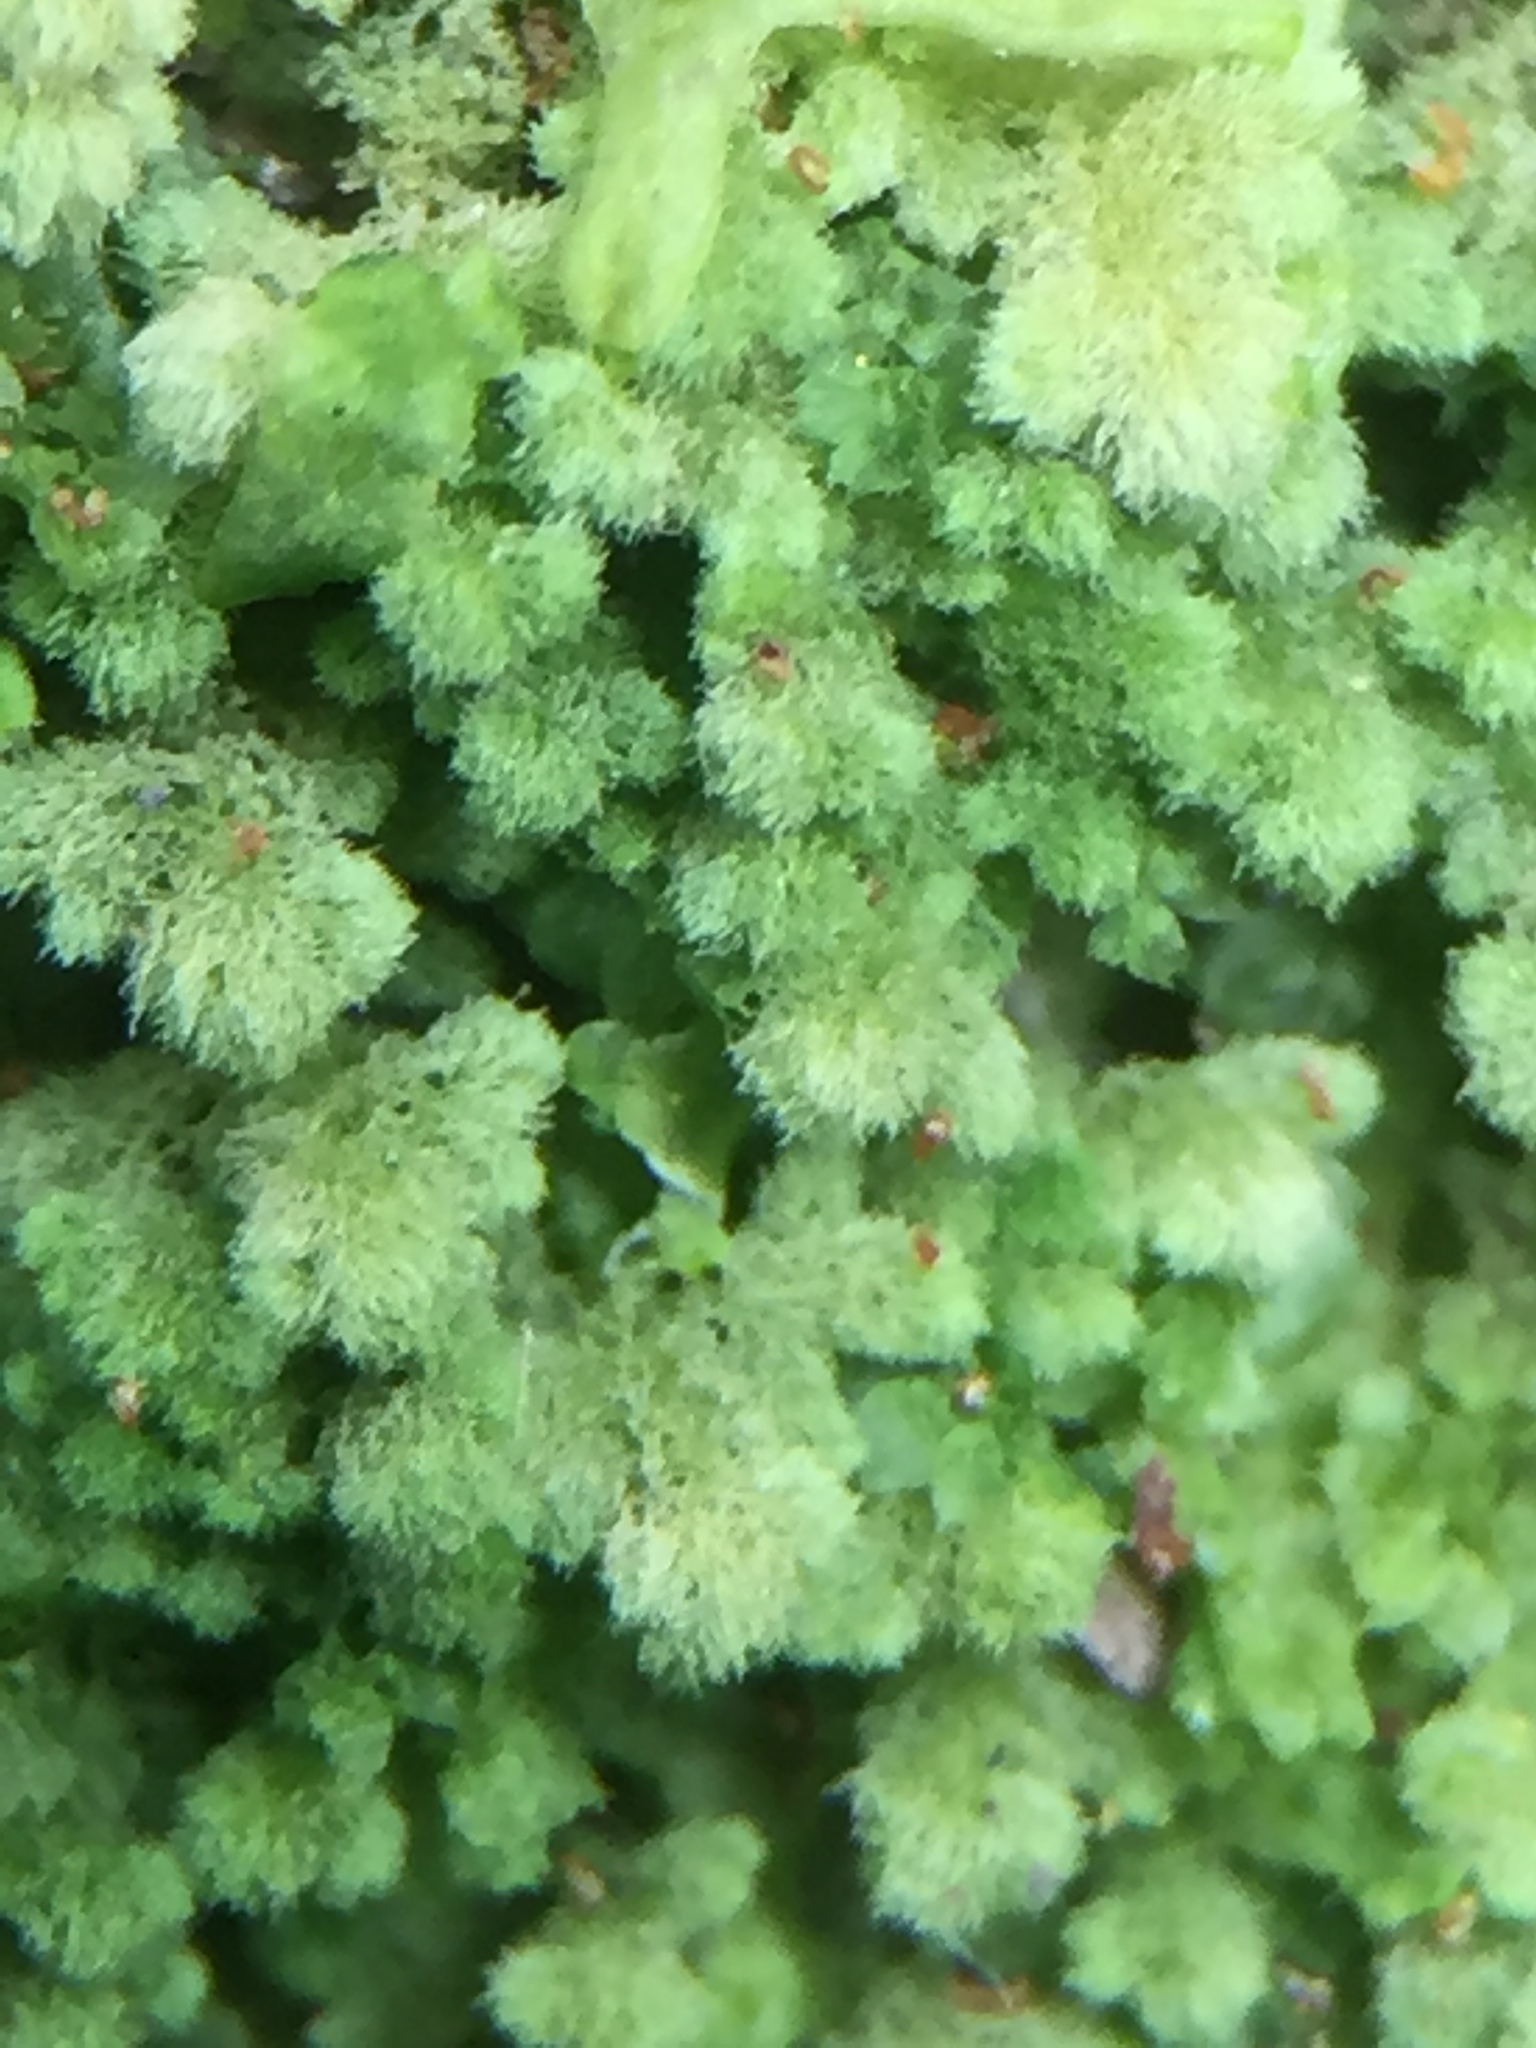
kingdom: Plantae
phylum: Marchantiophyta
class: Jungermanniopsida
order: Jungermanniales
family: Trichocoleaceae
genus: Trichocolea
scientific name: Trichocolea mollissima
